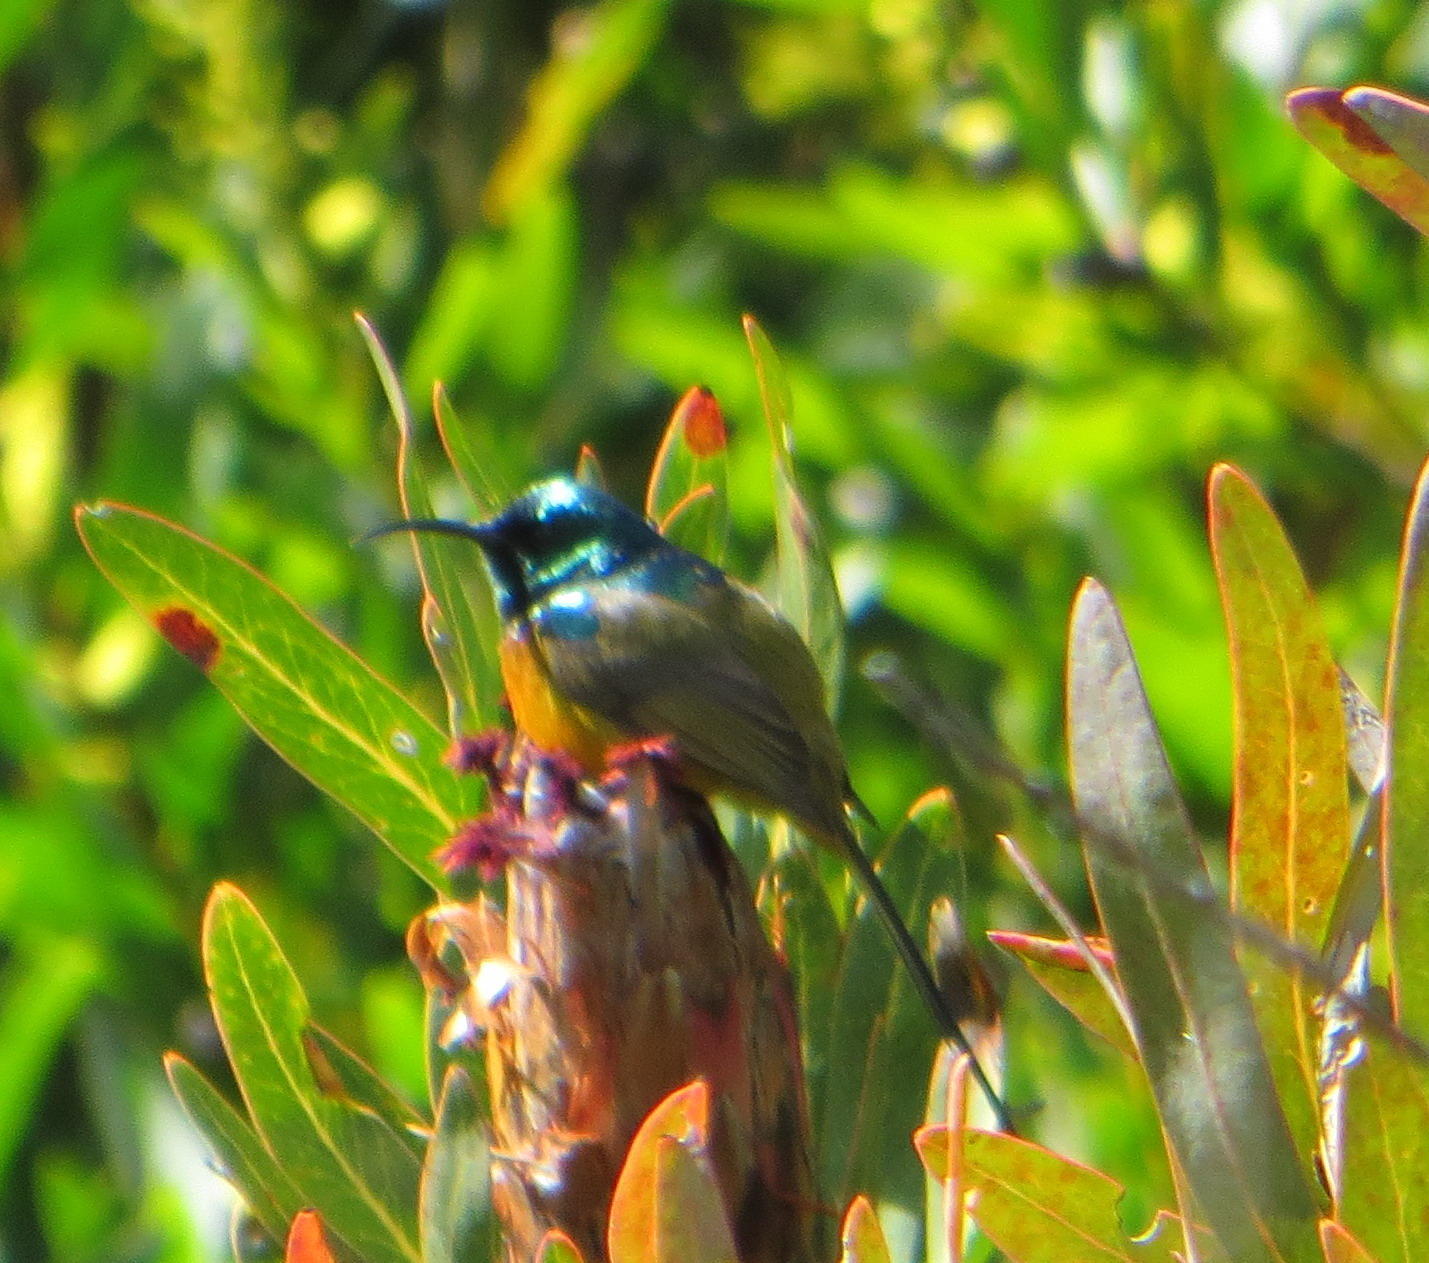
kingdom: Animalia
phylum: Chordata
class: Aves
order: Passeriformes
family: Nectariniidae
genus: Anthobaphes
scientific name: Anthobaphes violacea
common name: Orange-breasted sunbird
